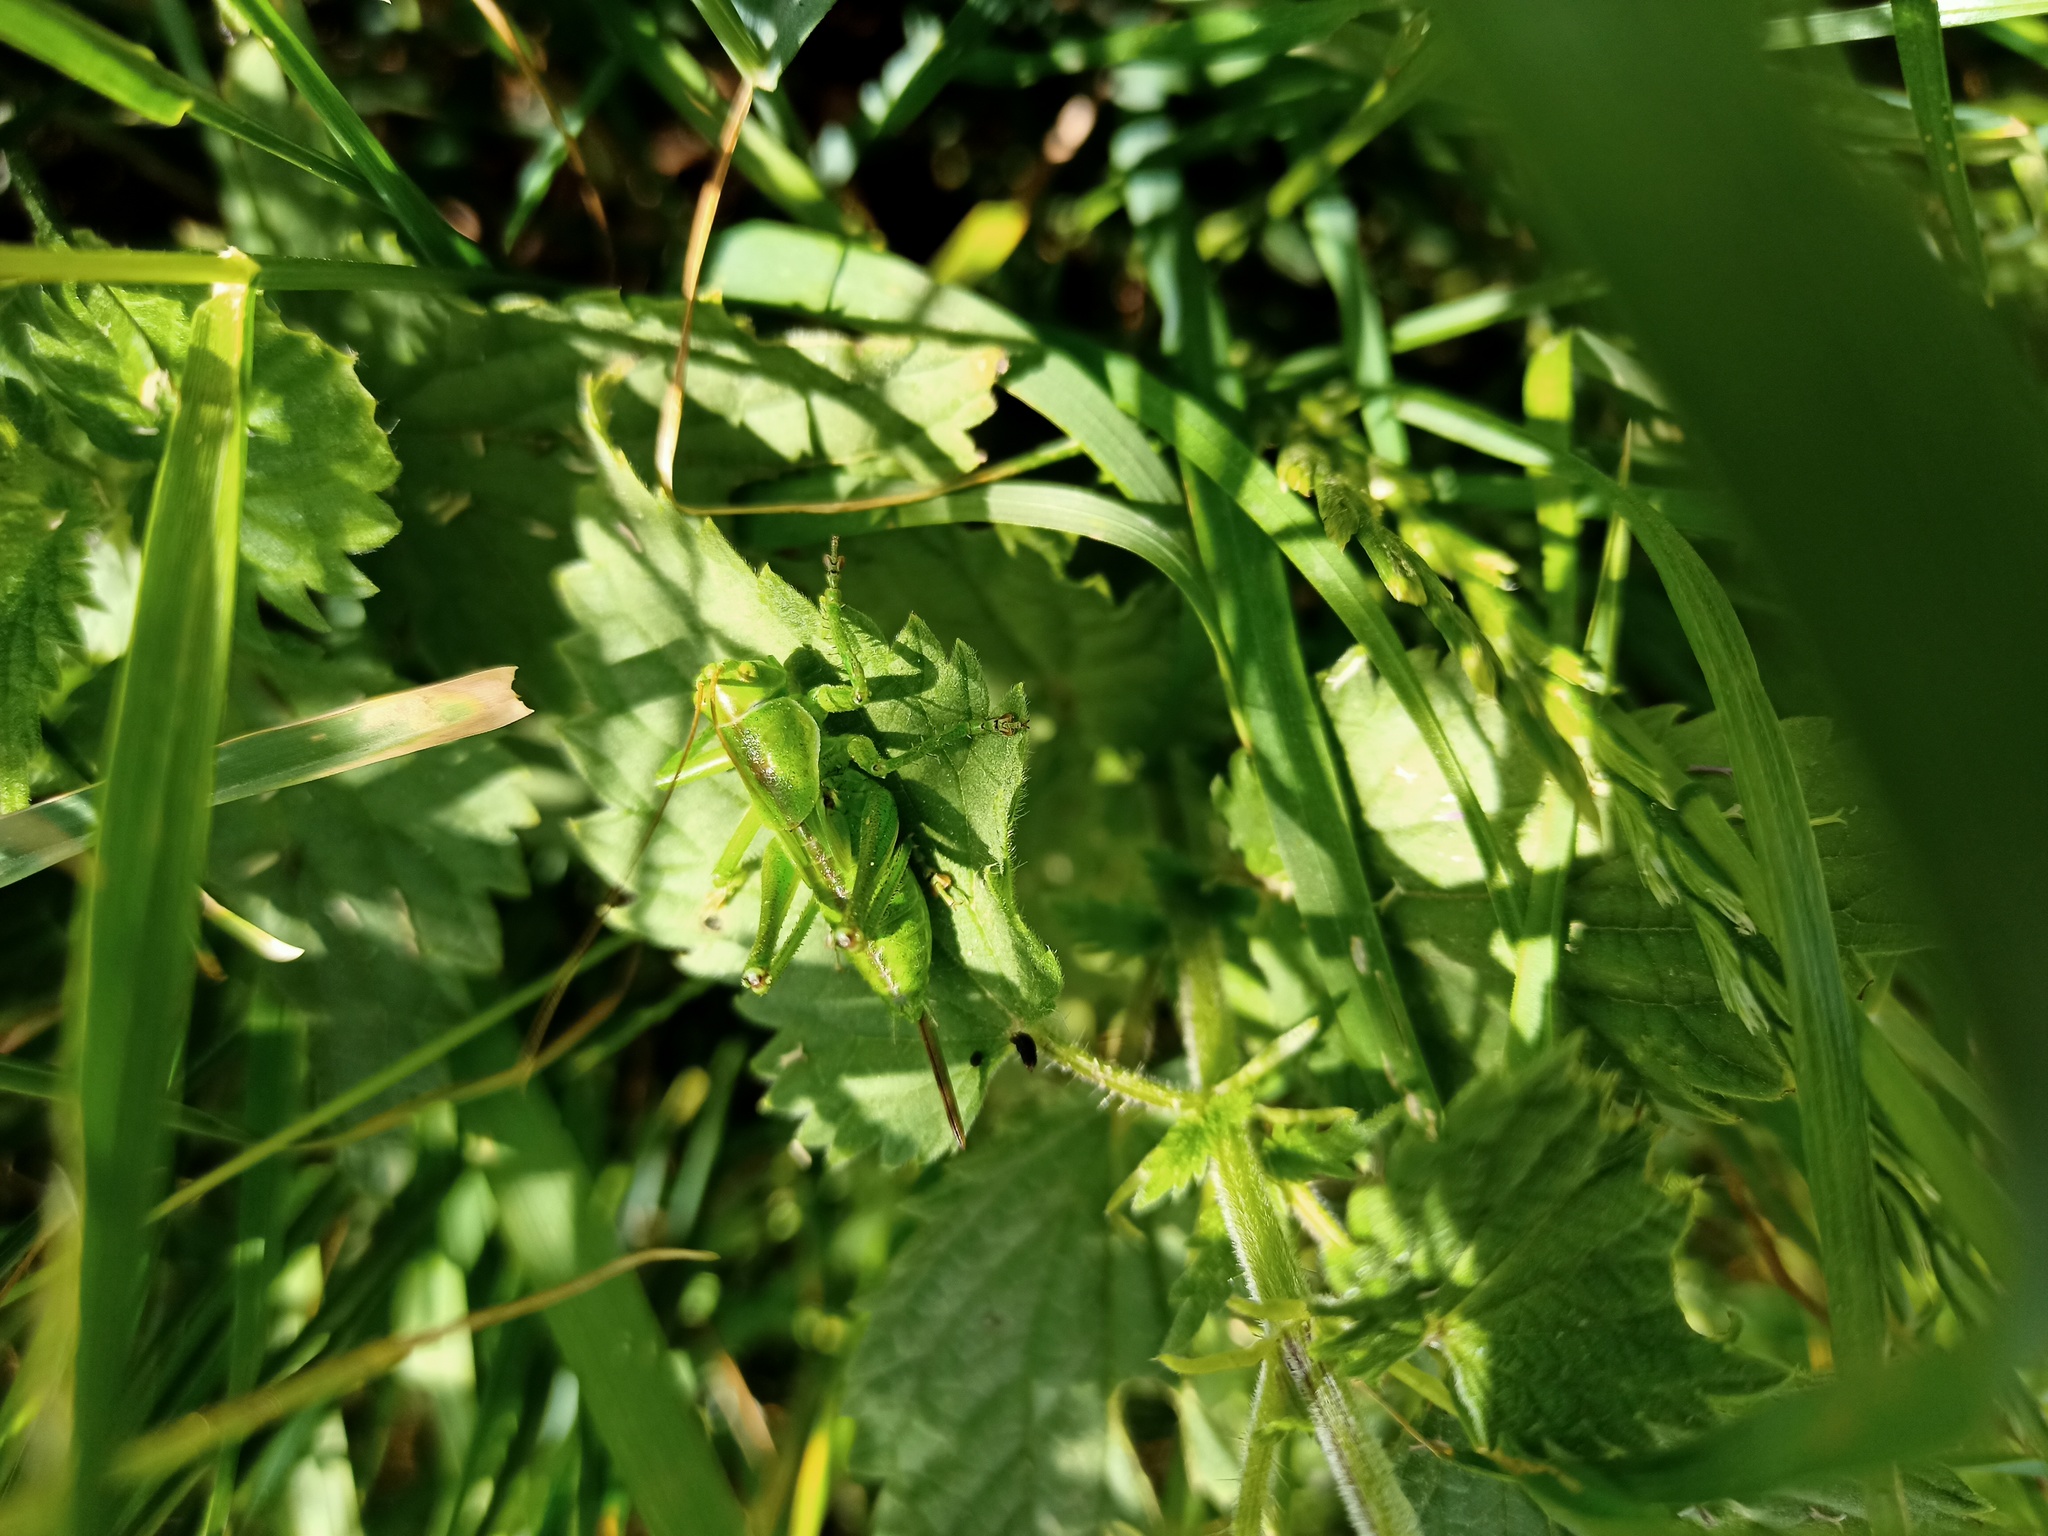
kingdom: Animalia
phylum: Arthropoda
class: Insecta
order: Orthoptera
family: Tettigoniidae
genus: Tettigonia
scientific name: Tettigonia viridissima
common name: Great green bush-cricket
